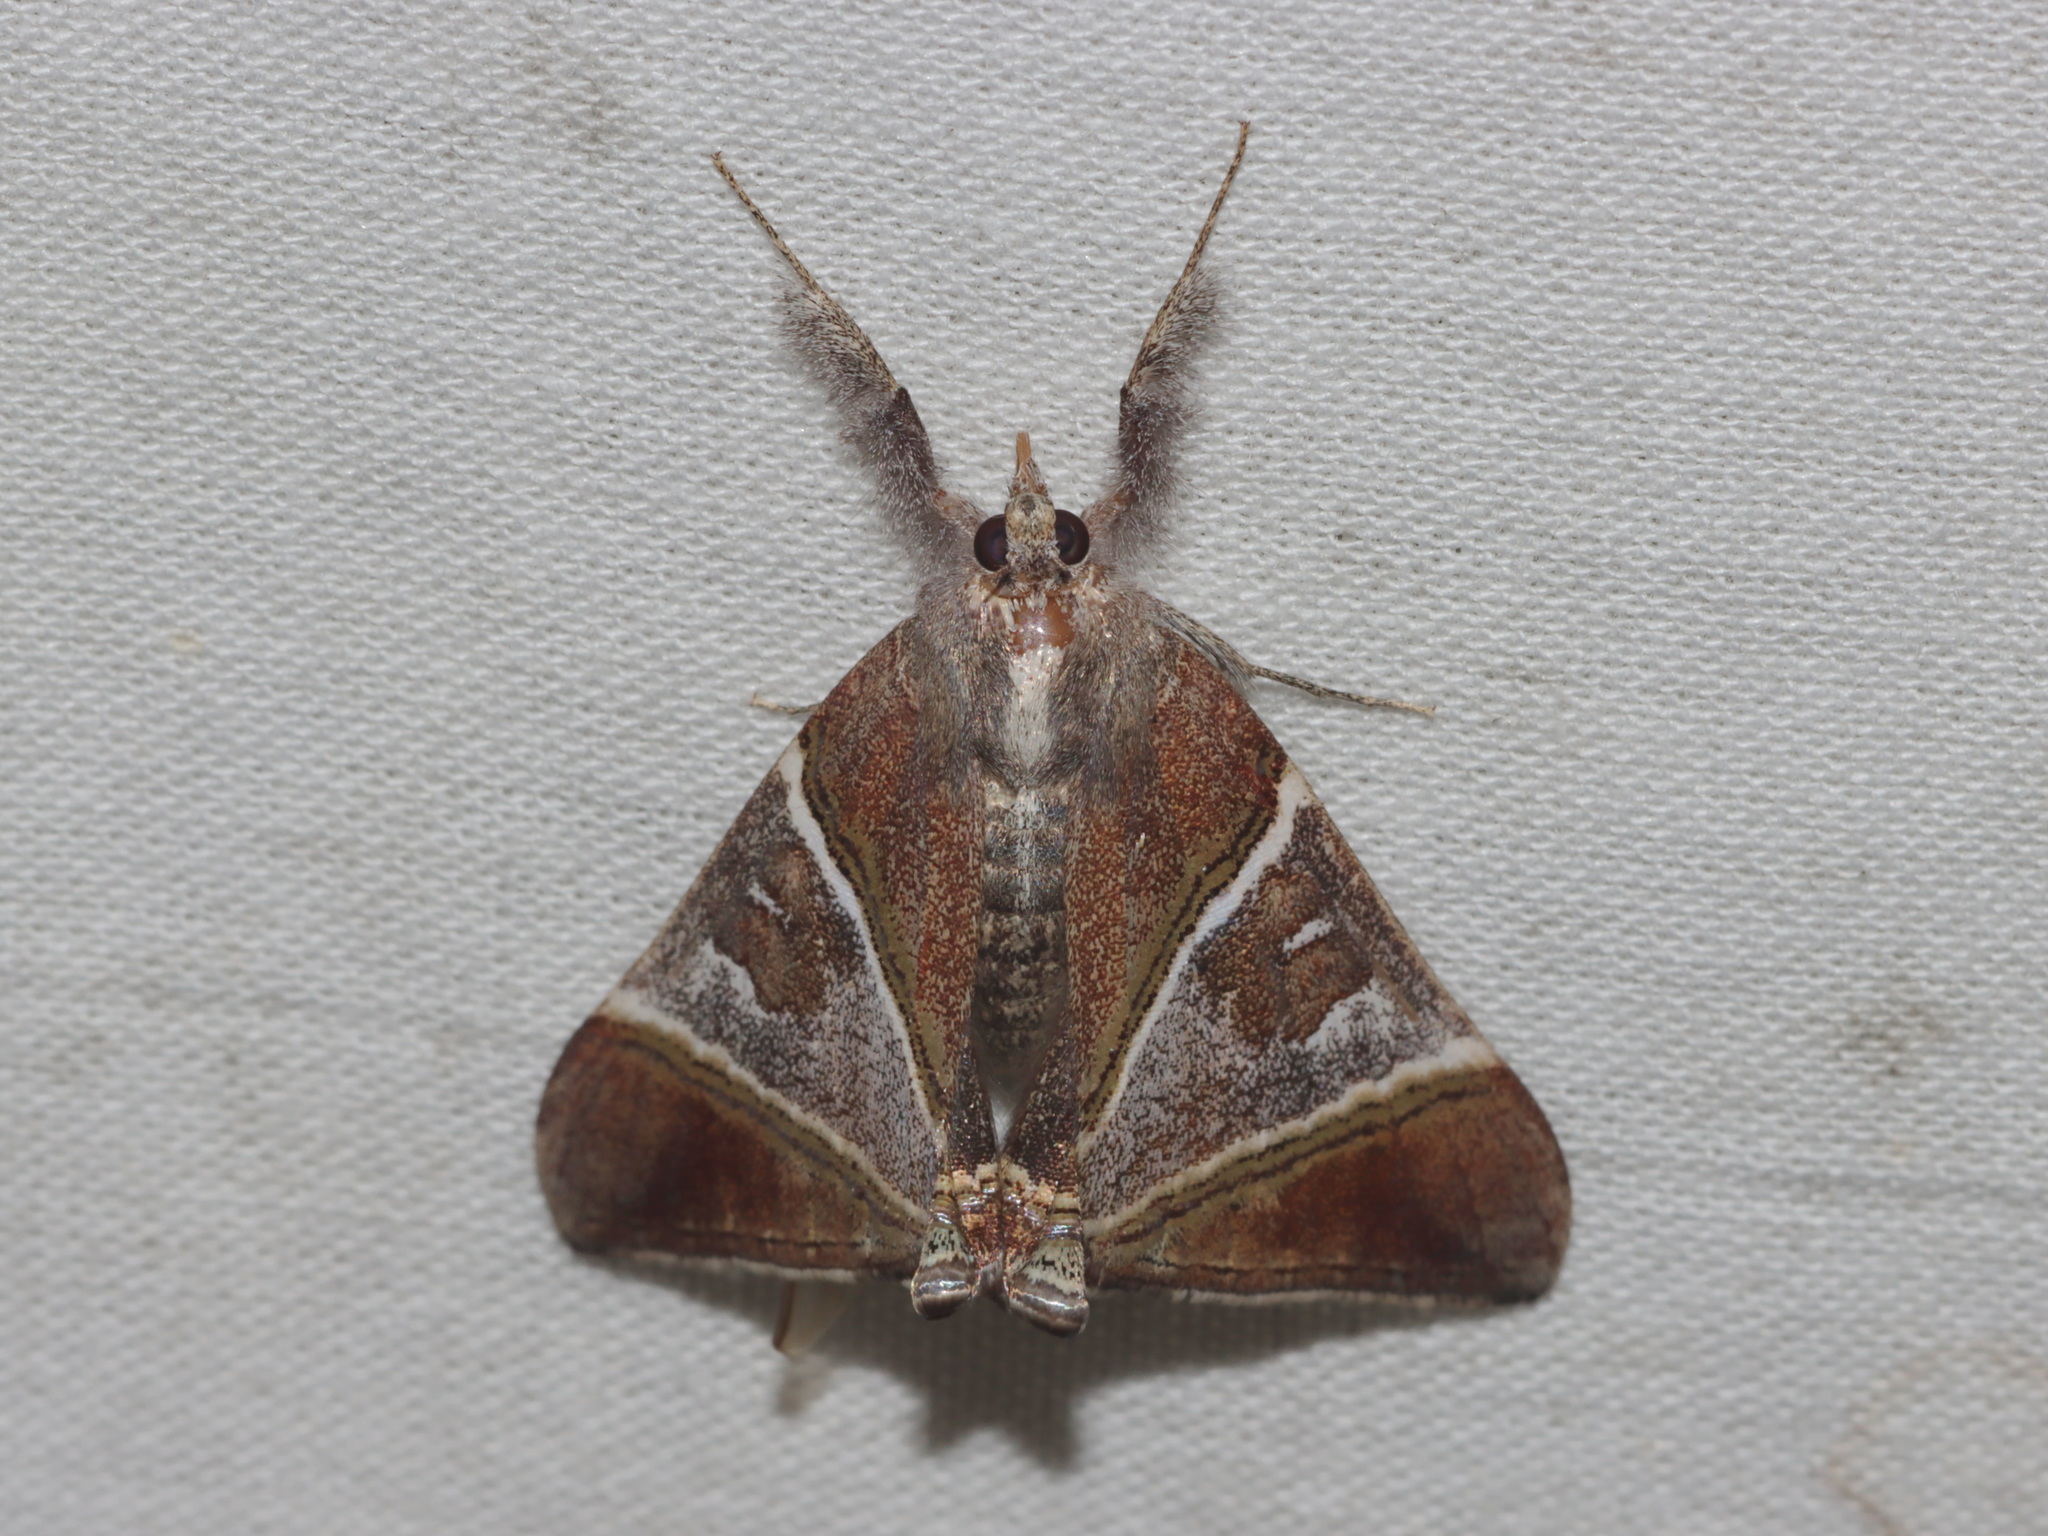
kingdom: Animalia
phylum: Arthropoda
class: Insecta
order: Lepidoptera
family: Noctuidae
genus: Saigonita
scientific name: Saigonita paradoxa
